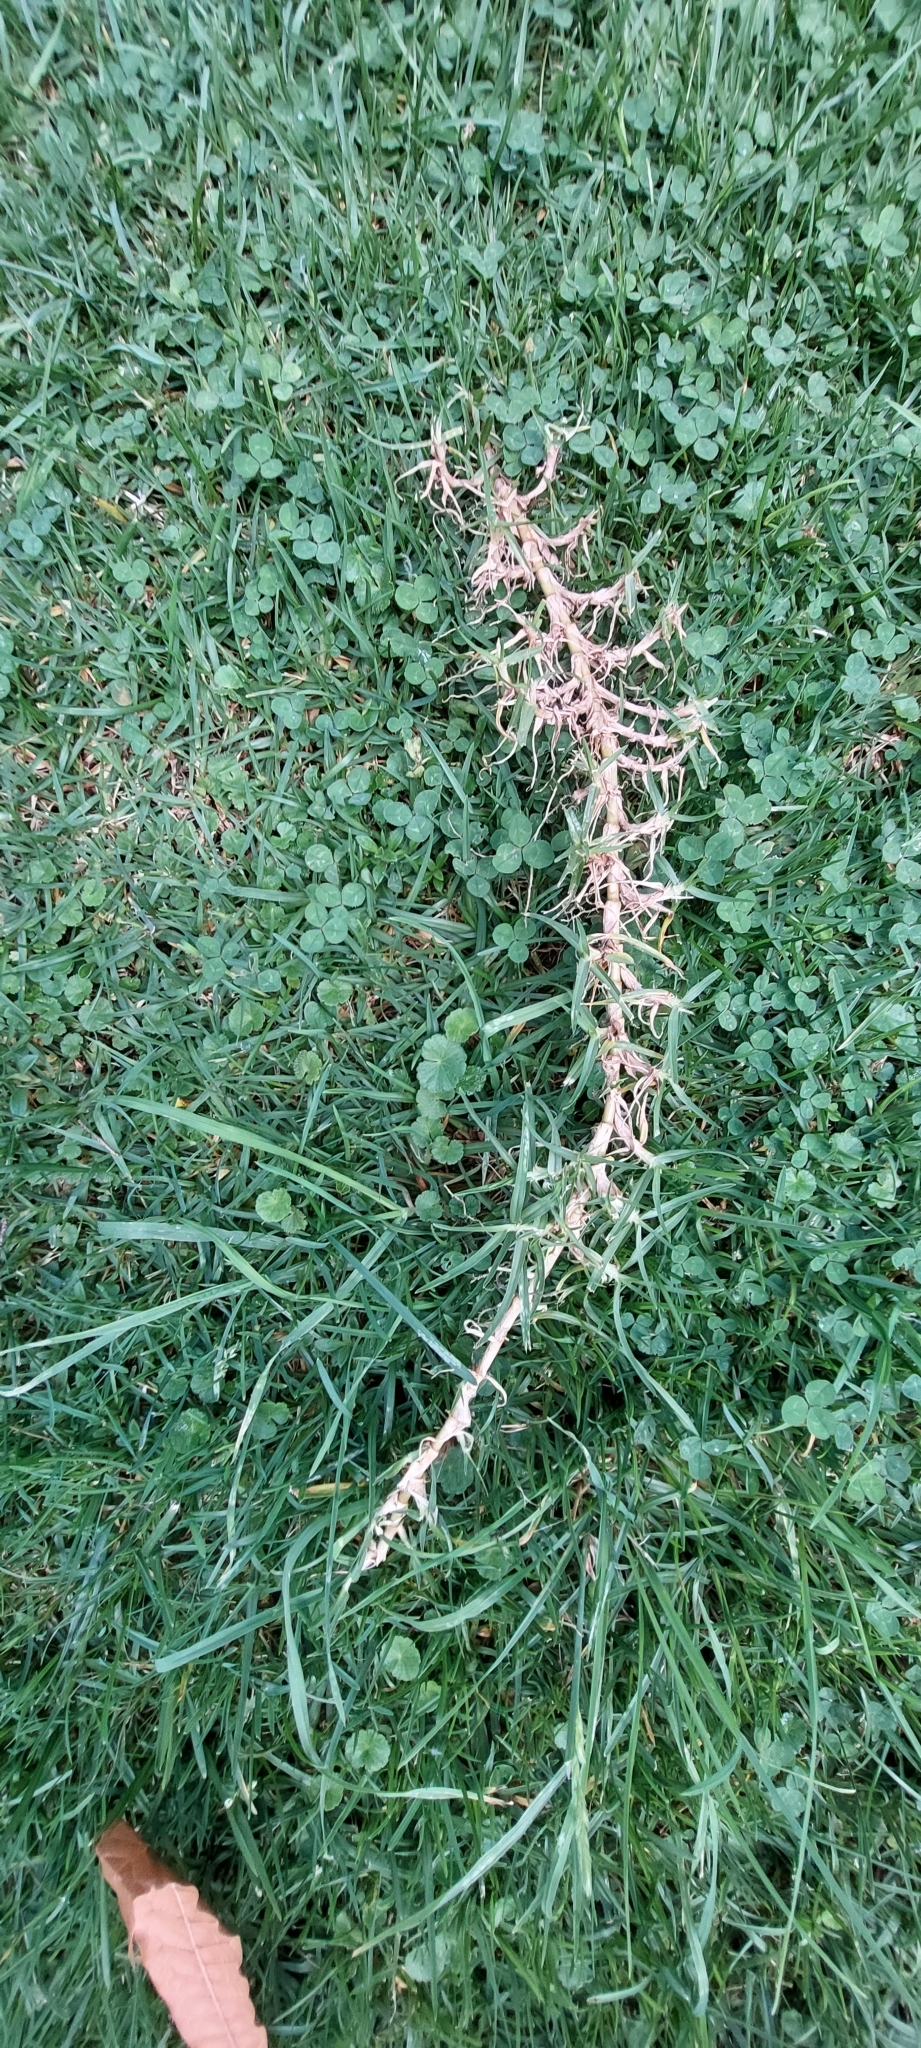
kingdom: Plantae
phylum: Tracheophyta
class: Liliopsida
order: Poales
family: Poaceae
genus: Cenchrus
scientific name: Cenchrus clandestinus
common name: Kikuyugrass
